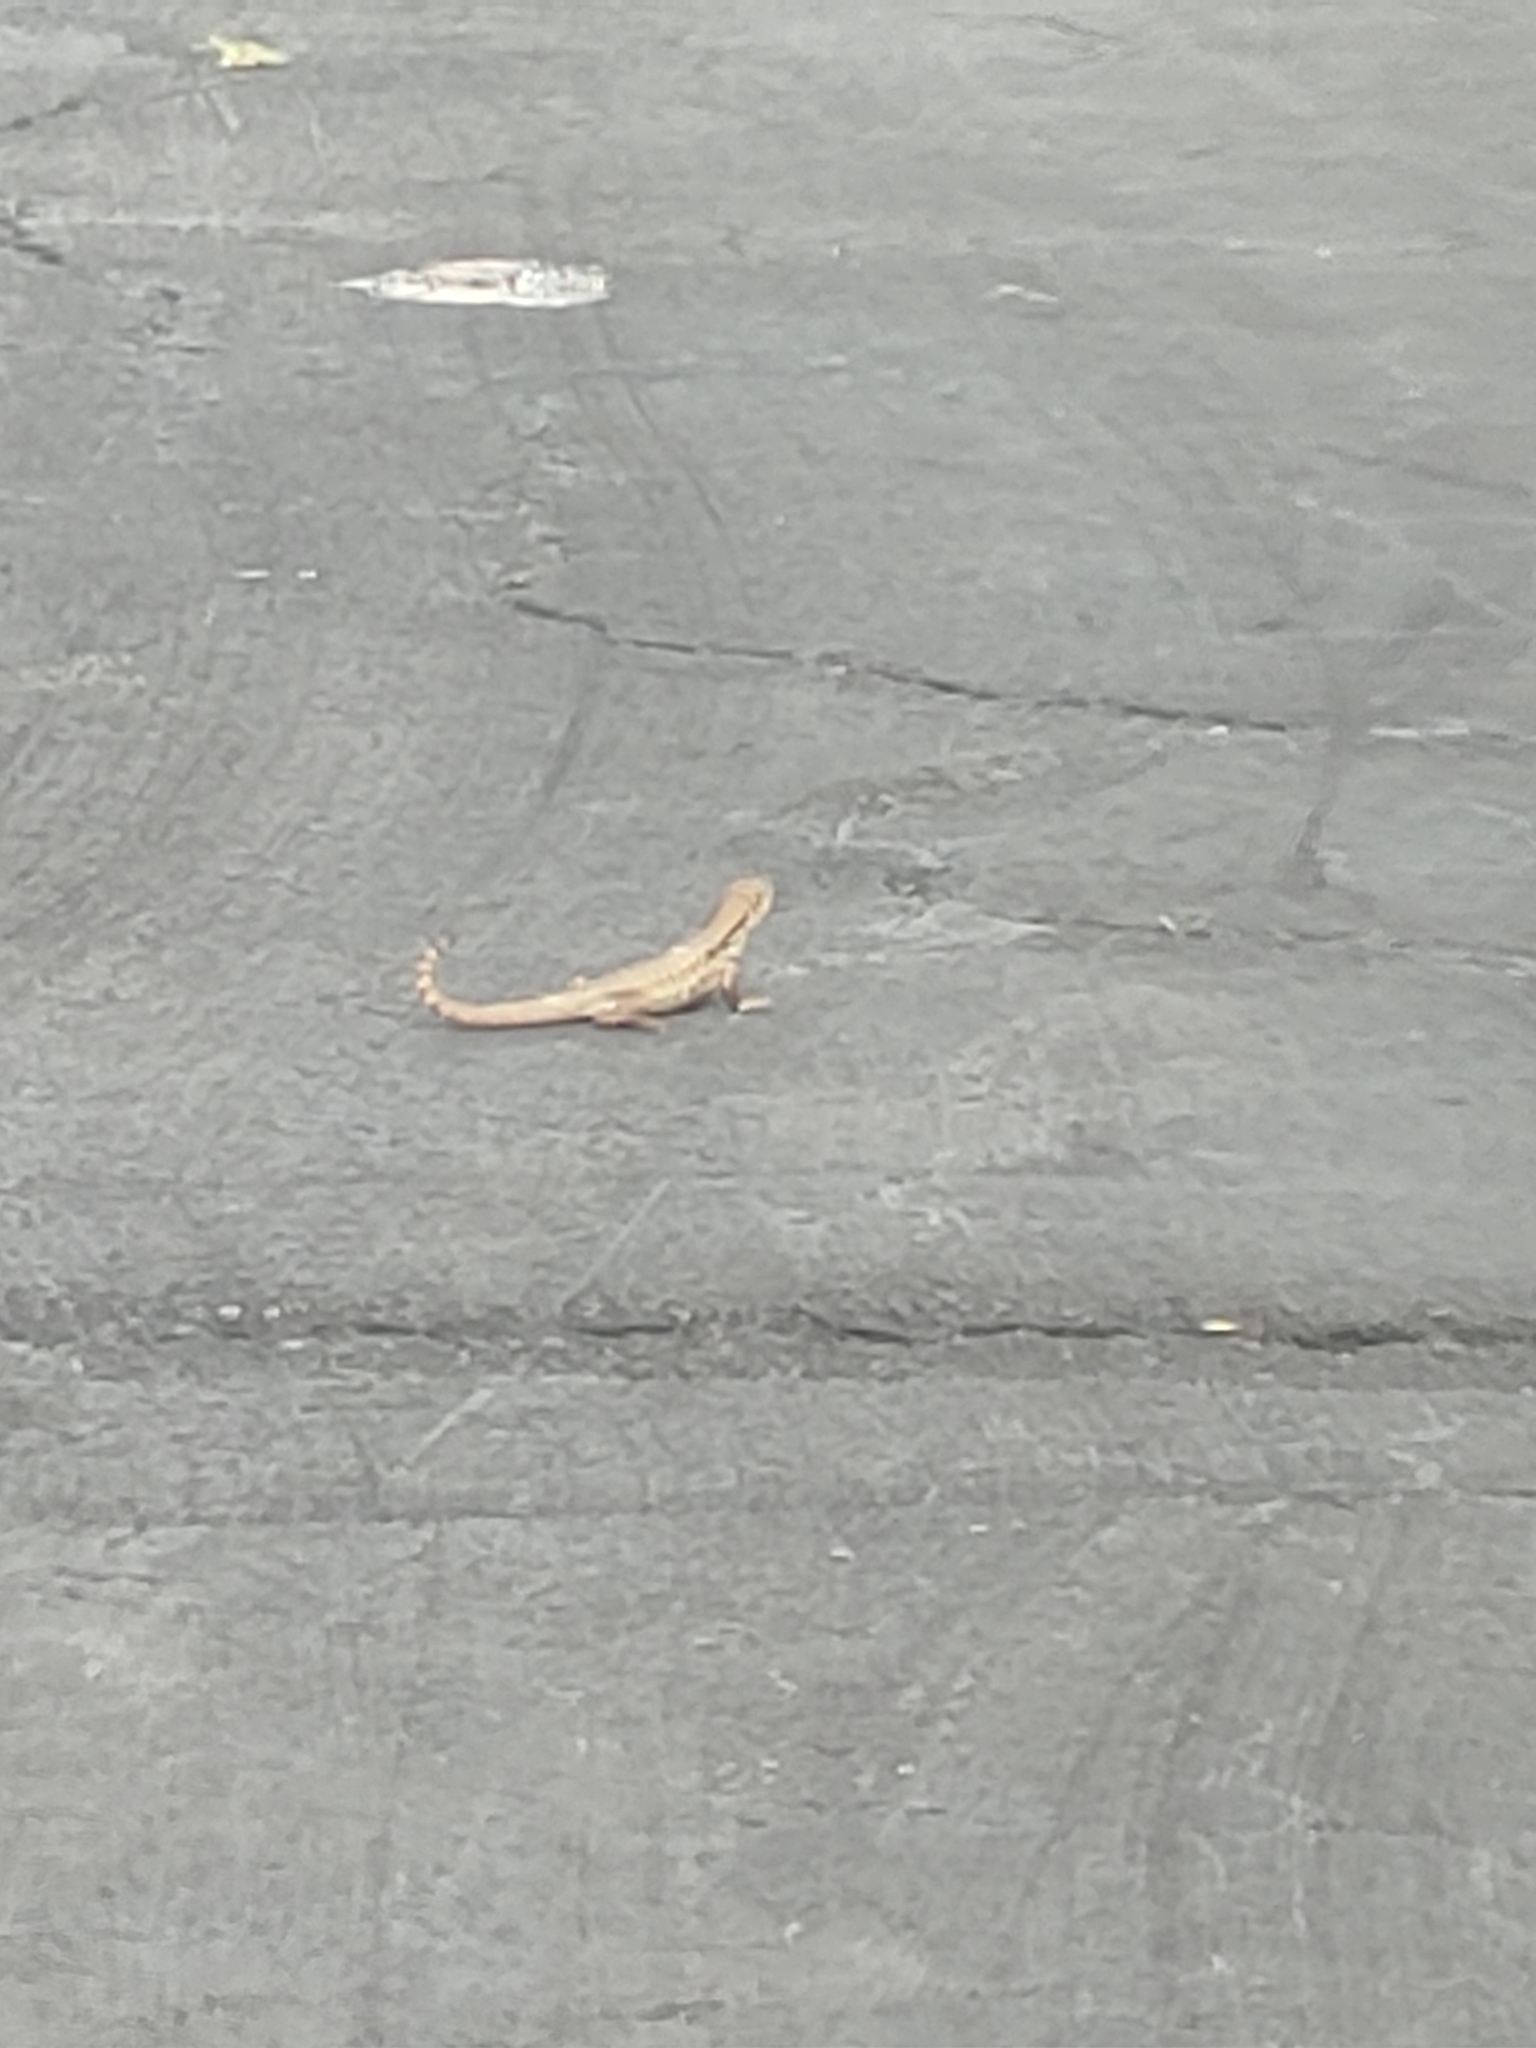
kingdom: Animalia
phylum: Chordata
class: Squamata
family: Leiocephalidae
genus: Leiocephalus
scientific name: Leiocephalus carinatus
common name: Northern curly-tailed lizard
